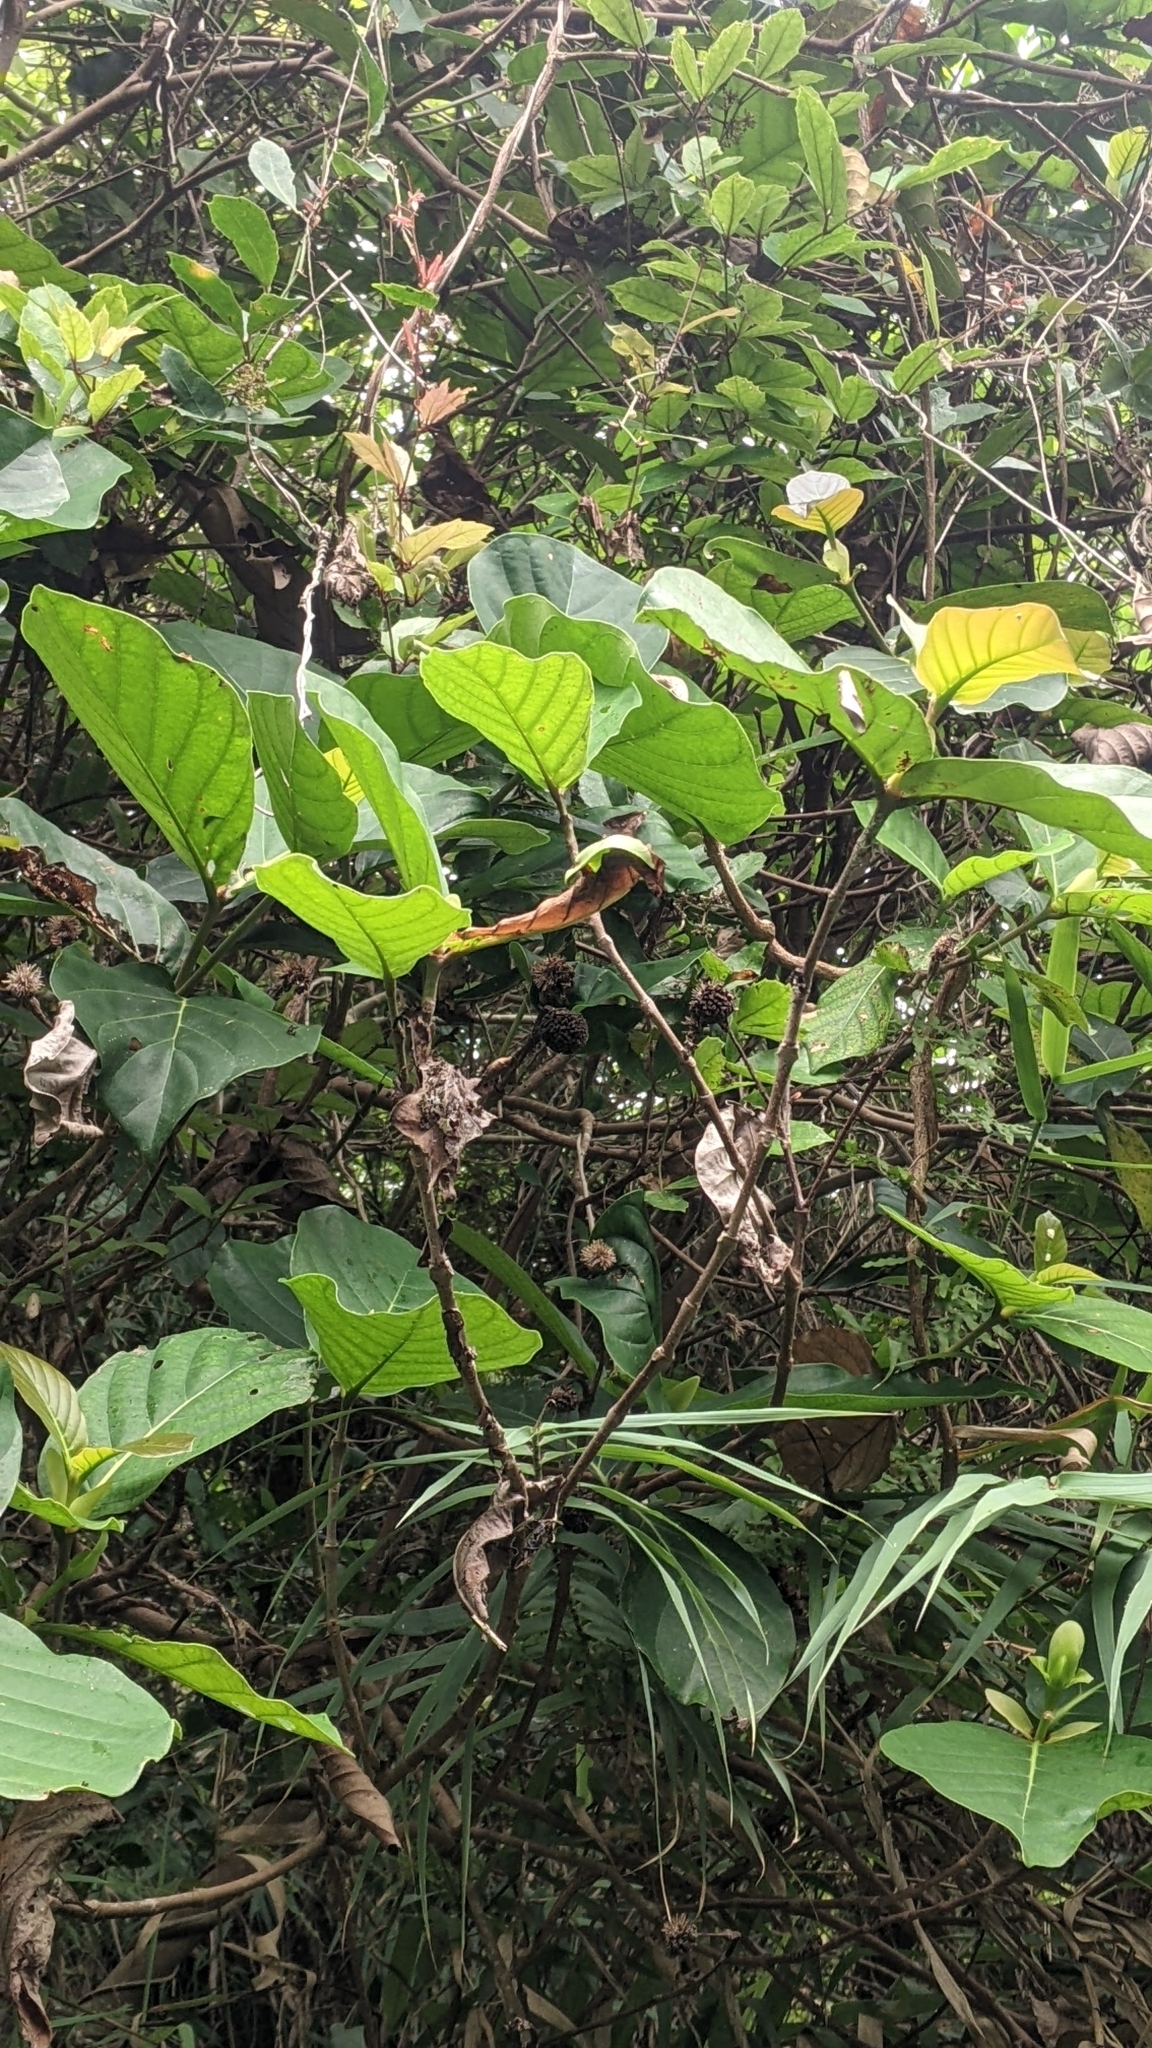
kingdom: Plantae
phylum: Tracheophyta
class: Magnoliopsida
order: Gentianales
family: Rubiaceae
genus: Neonauclea
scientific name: Neonauclea reticulata
